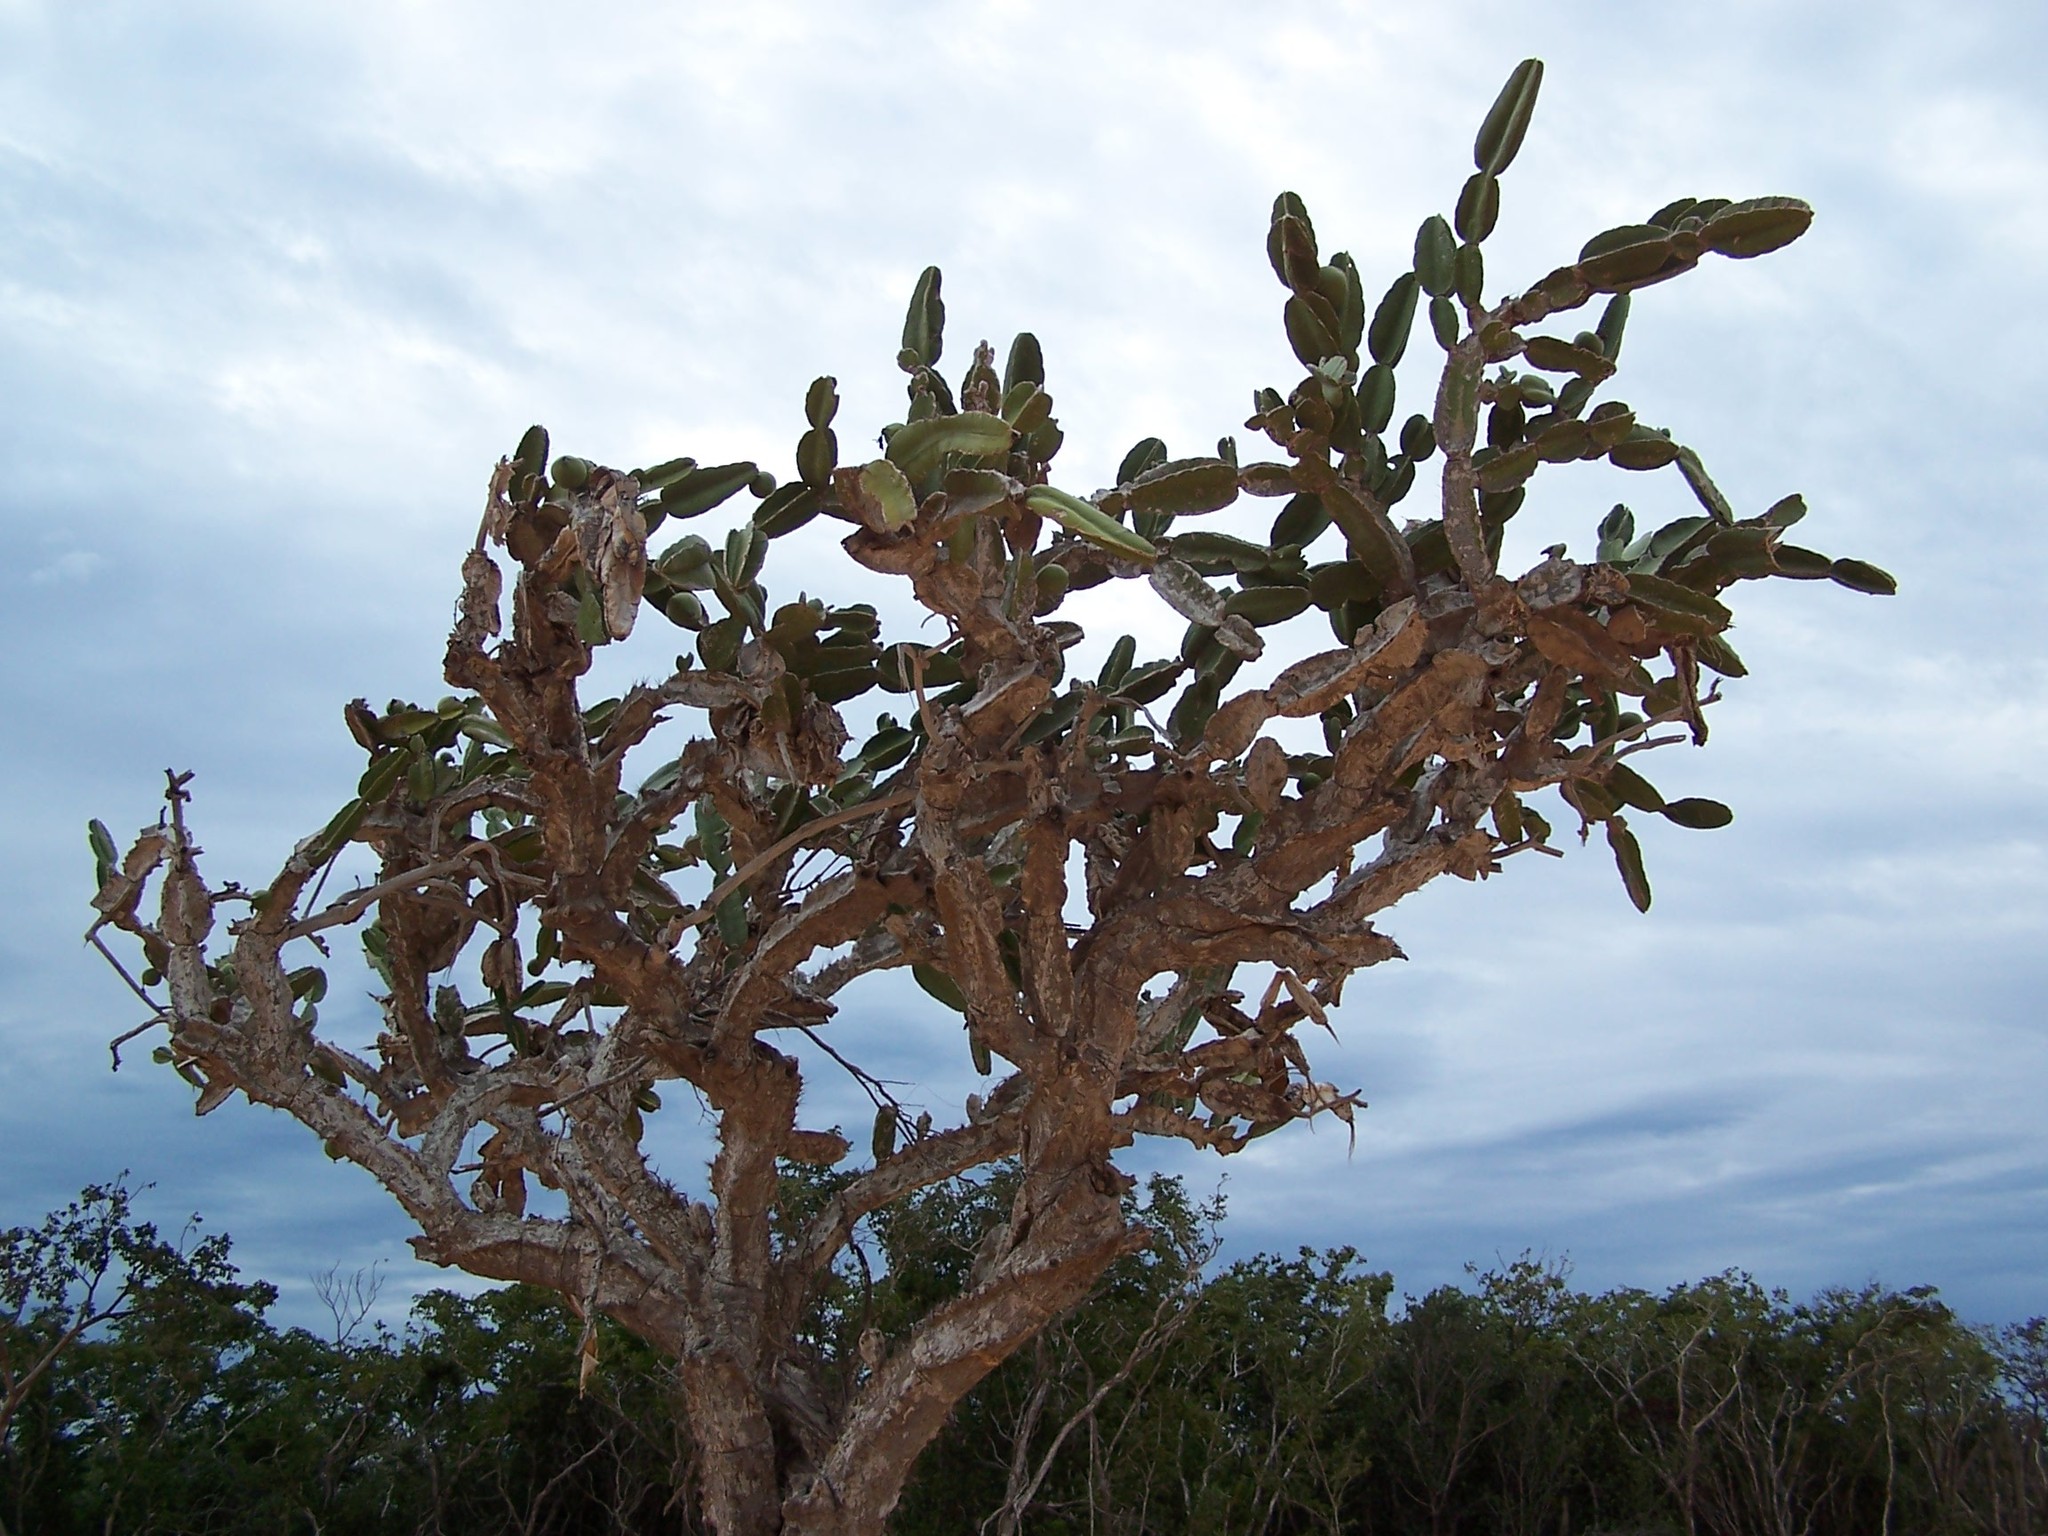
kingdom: Plantae
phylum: Tracheophyta
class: Magnoliopsida
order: Caryophyllales
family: Cactaceae
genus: Leptocereus
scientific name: Leptocereus nudiflorus
